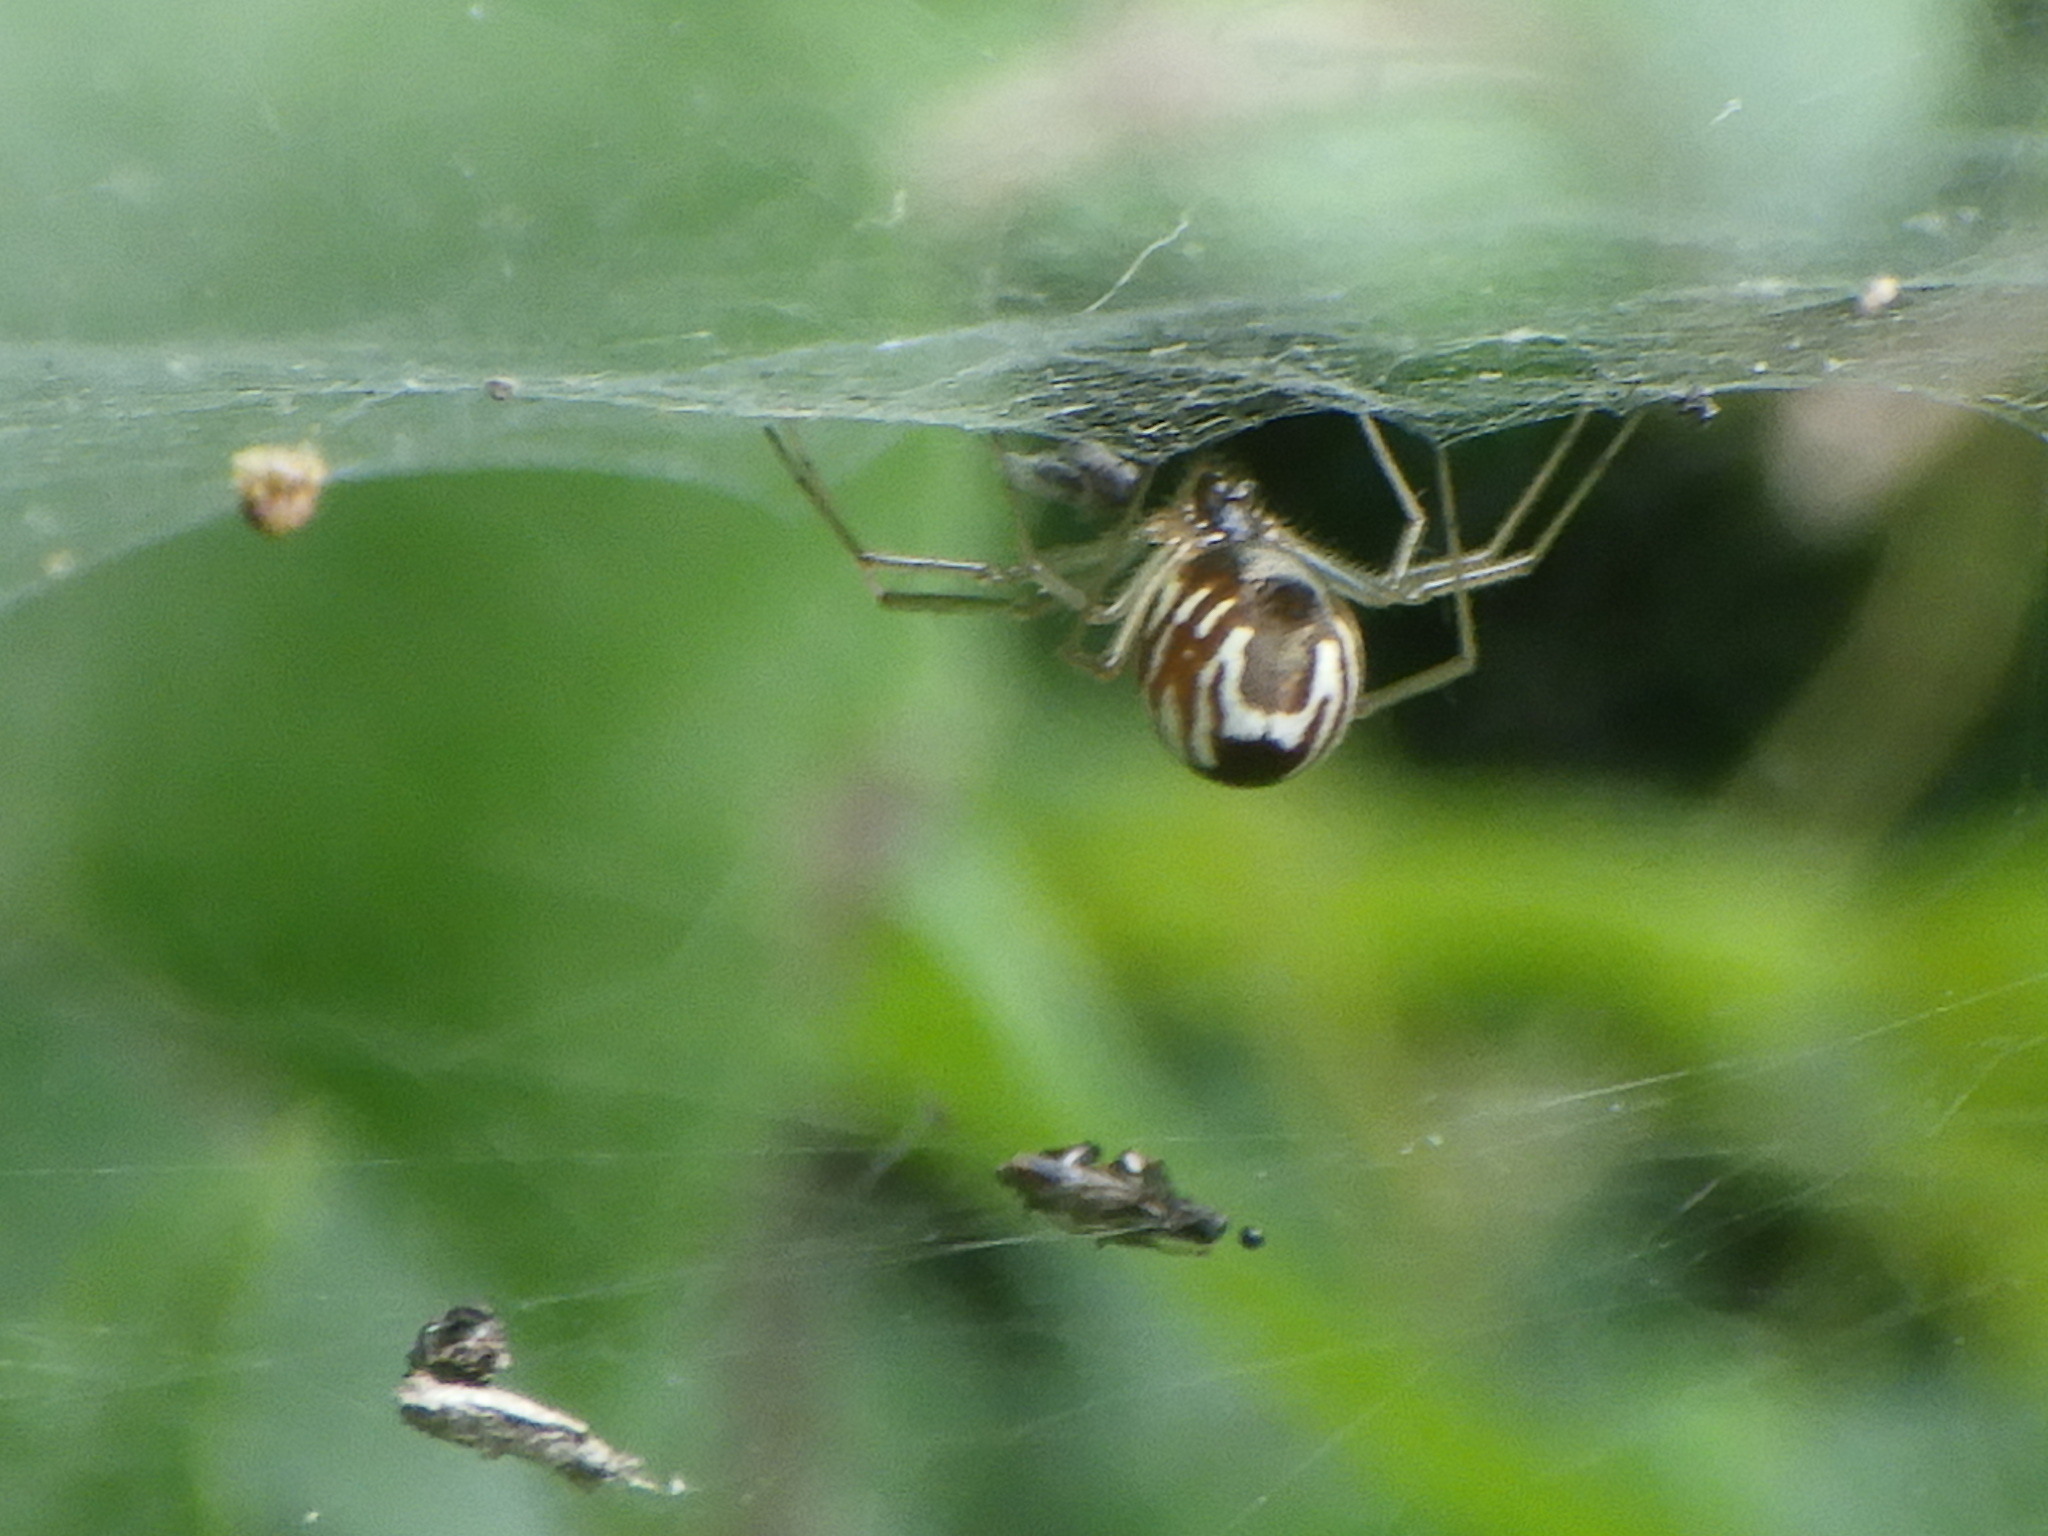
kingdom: Animalia
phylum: Arthropoda
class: Arachnida
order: Araneae
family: Linyphiidae
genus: Frontinella
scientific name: Frontinella pyramitela
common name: Bowl-and-doily spider
